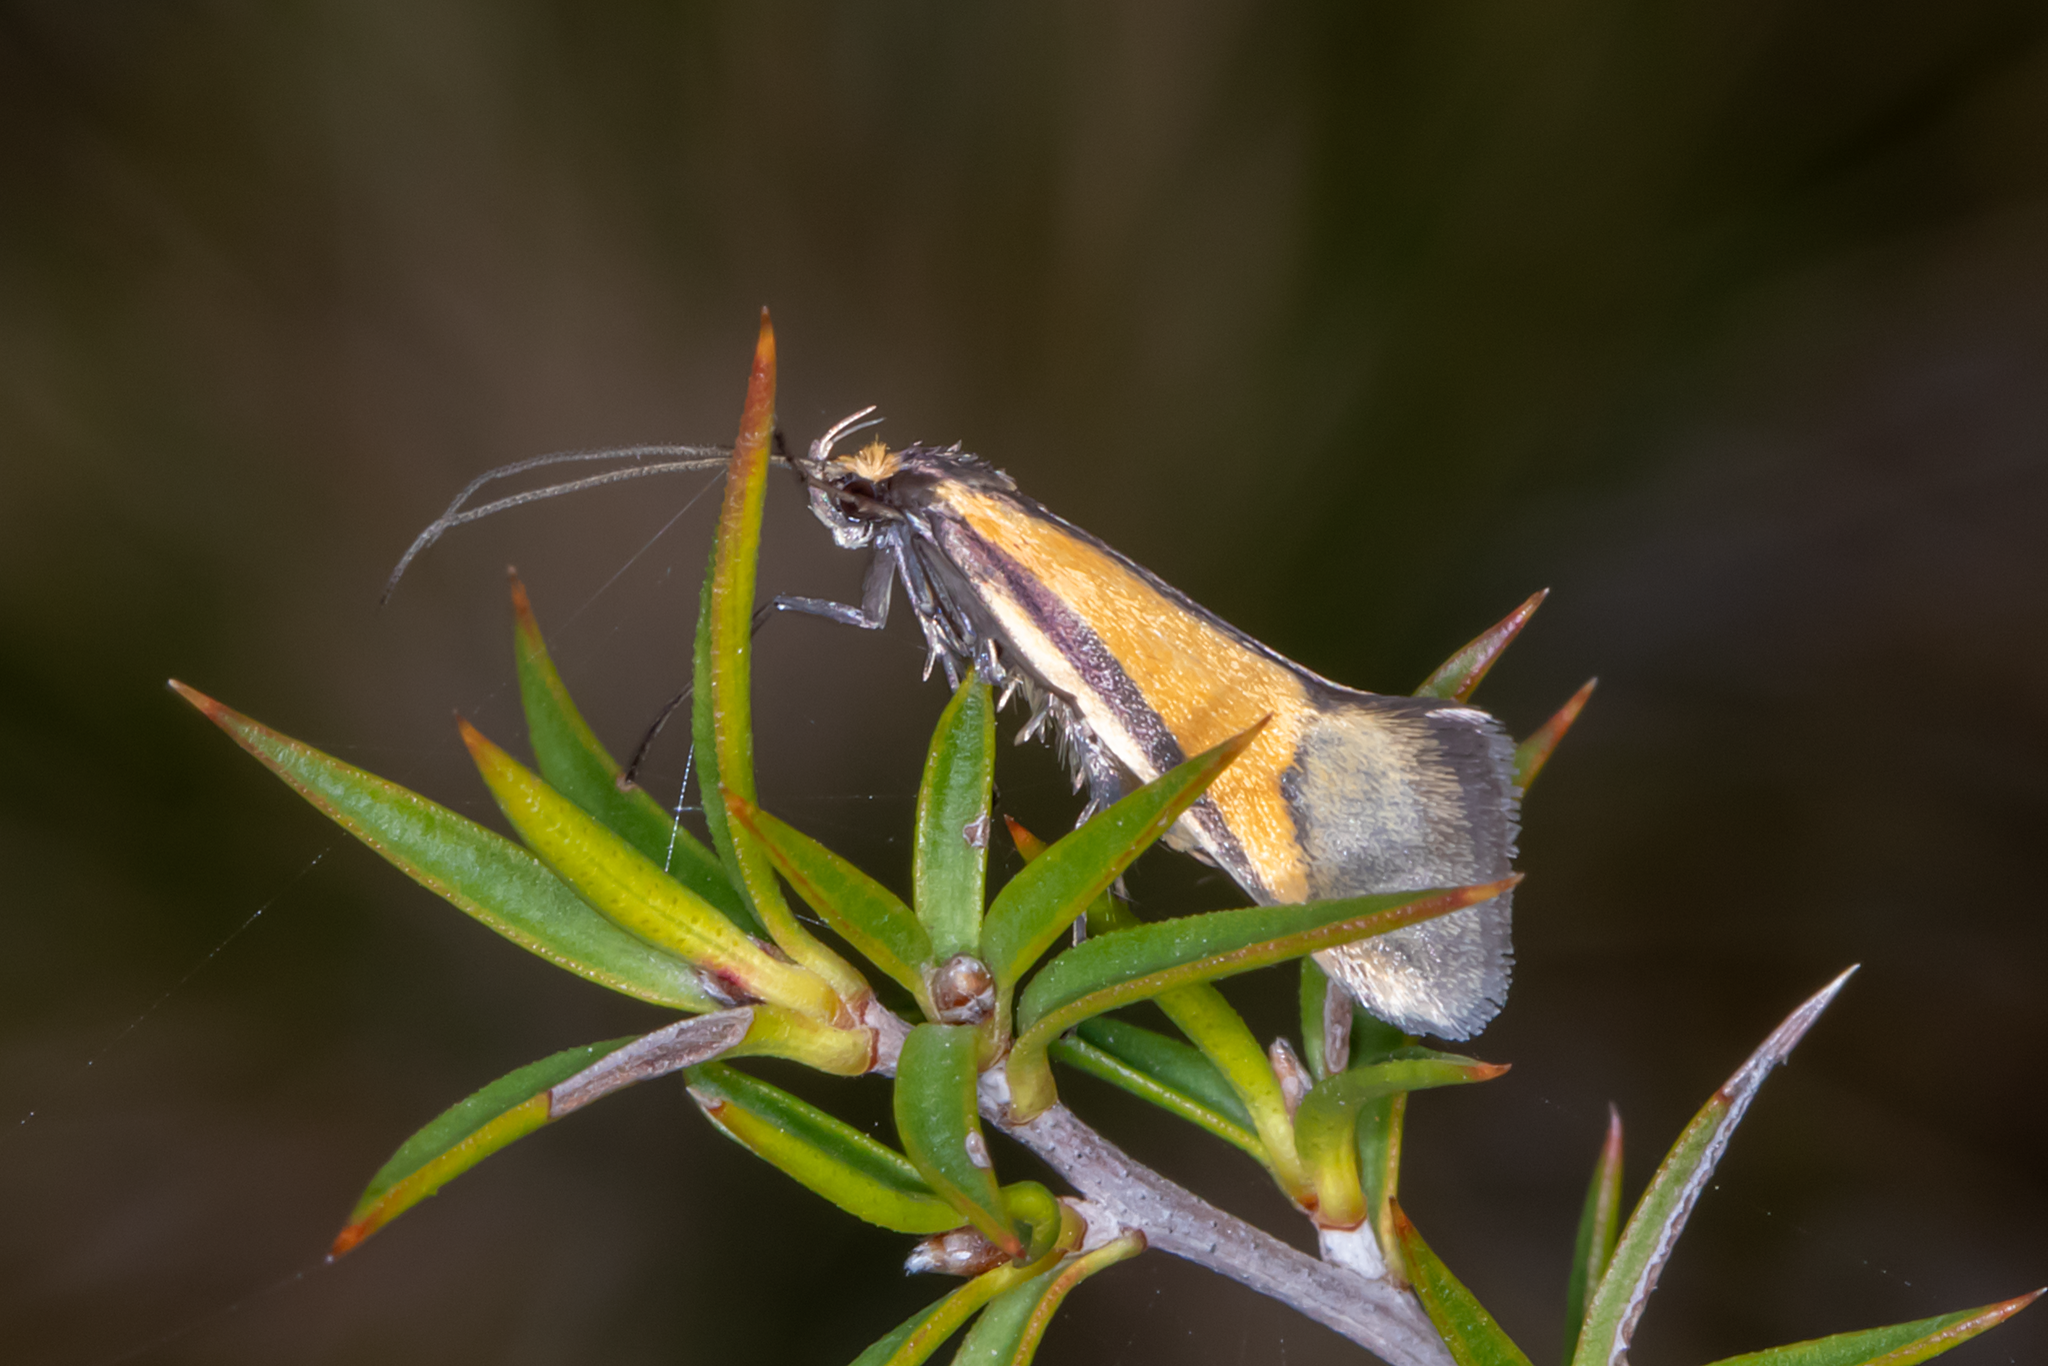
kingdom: Animalia
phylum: Arthropoda
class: Insecta
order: Lepidoptera
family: Oecophoridae
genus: Philobota
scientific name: Philobota arabella
